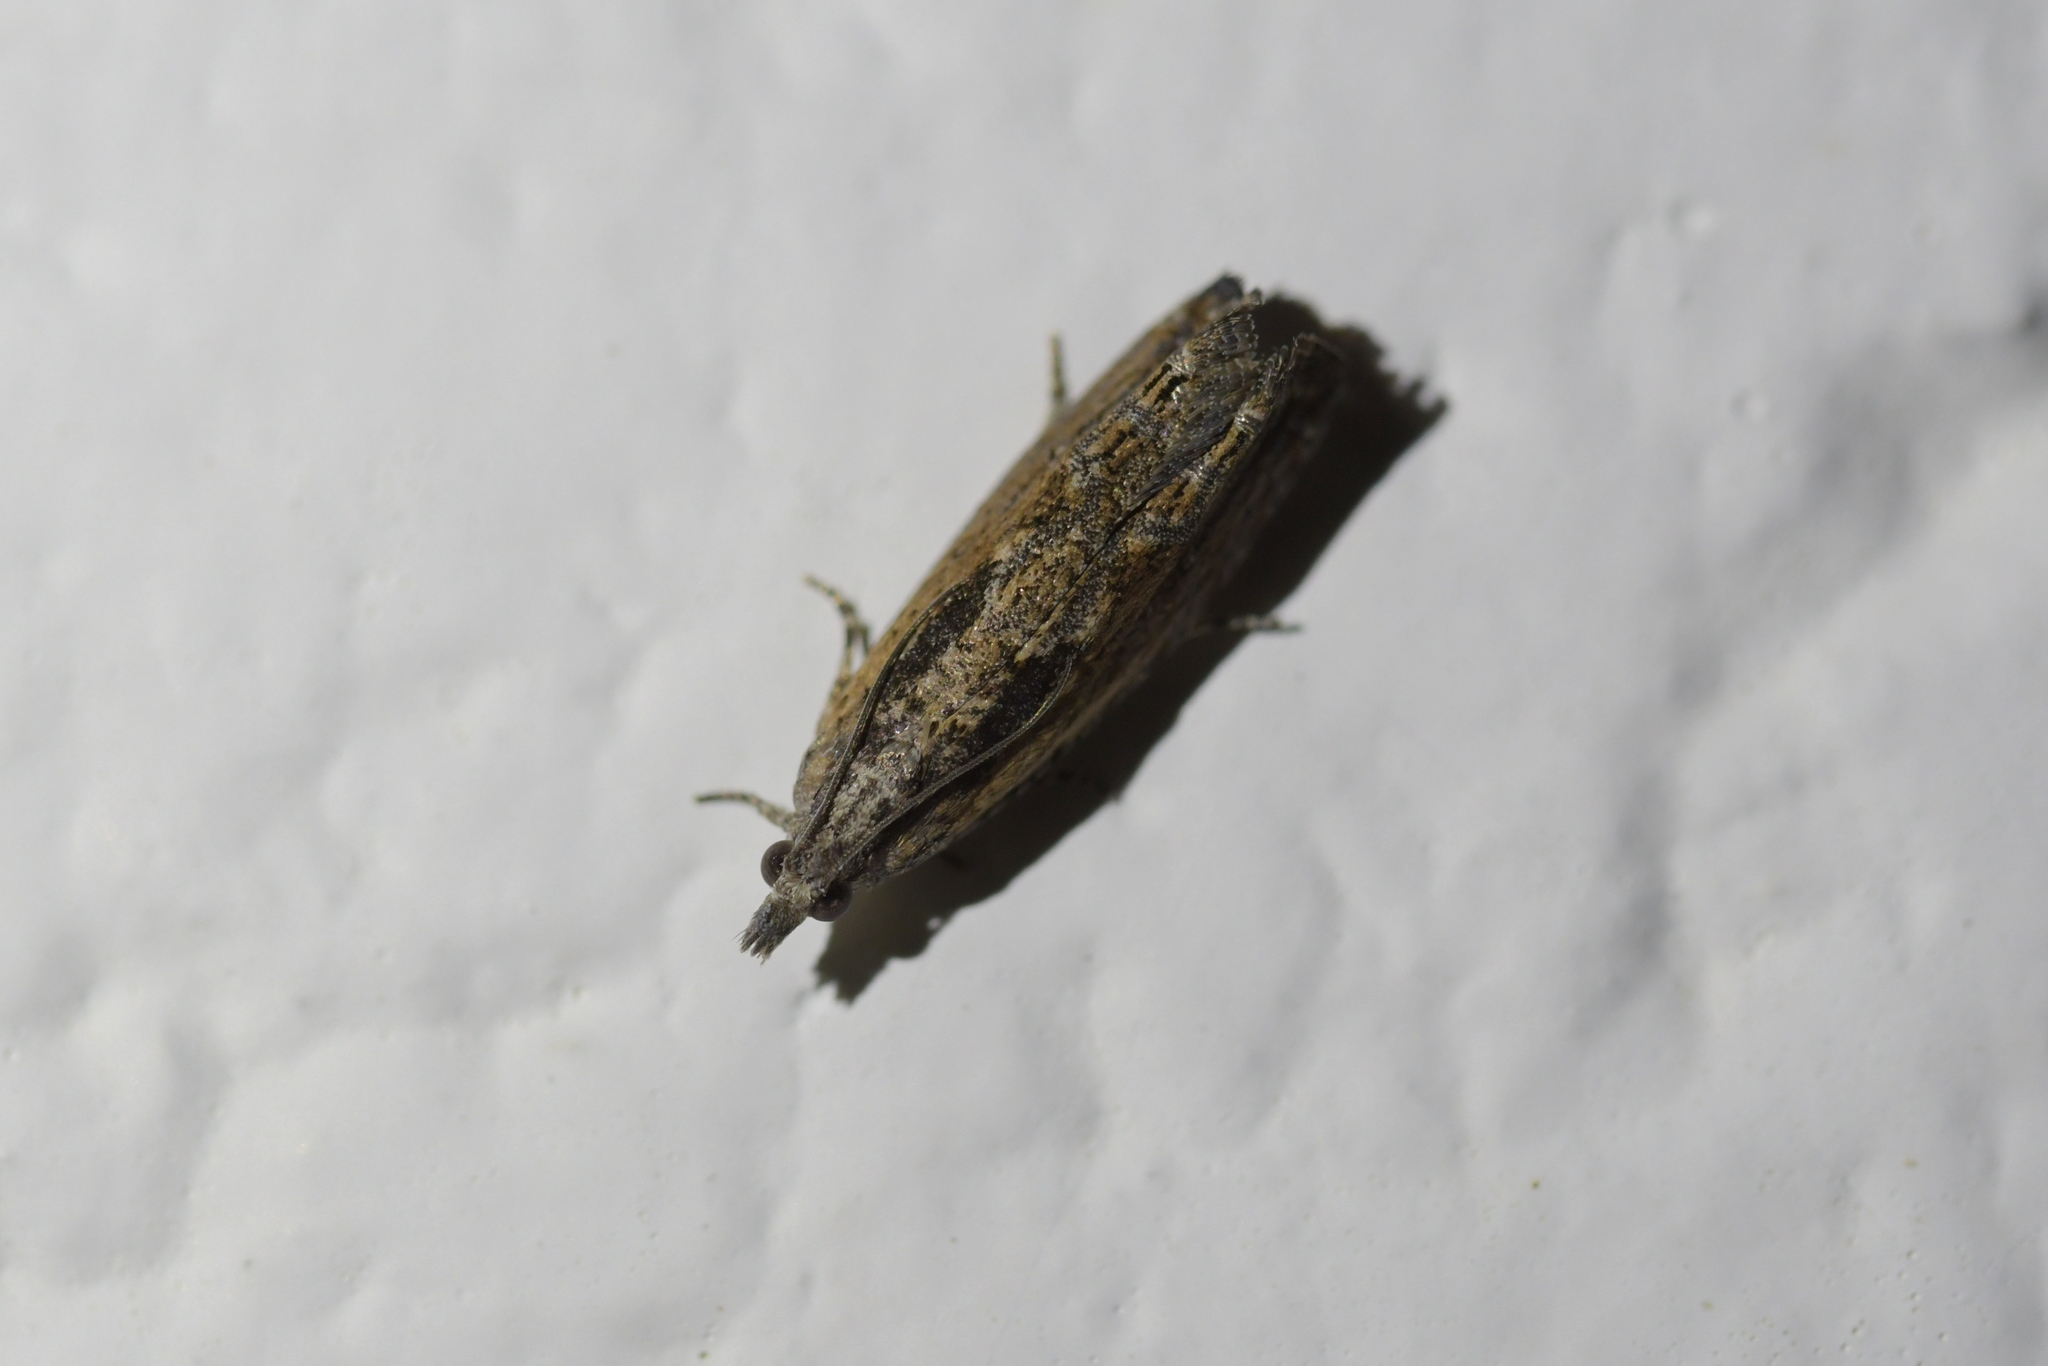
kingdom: Animalia
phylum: Arthropoda
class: Insecta
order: Lepidoptera
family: Tortricidae
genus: Strepsicrates
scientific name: Strepsicrates macropetana
